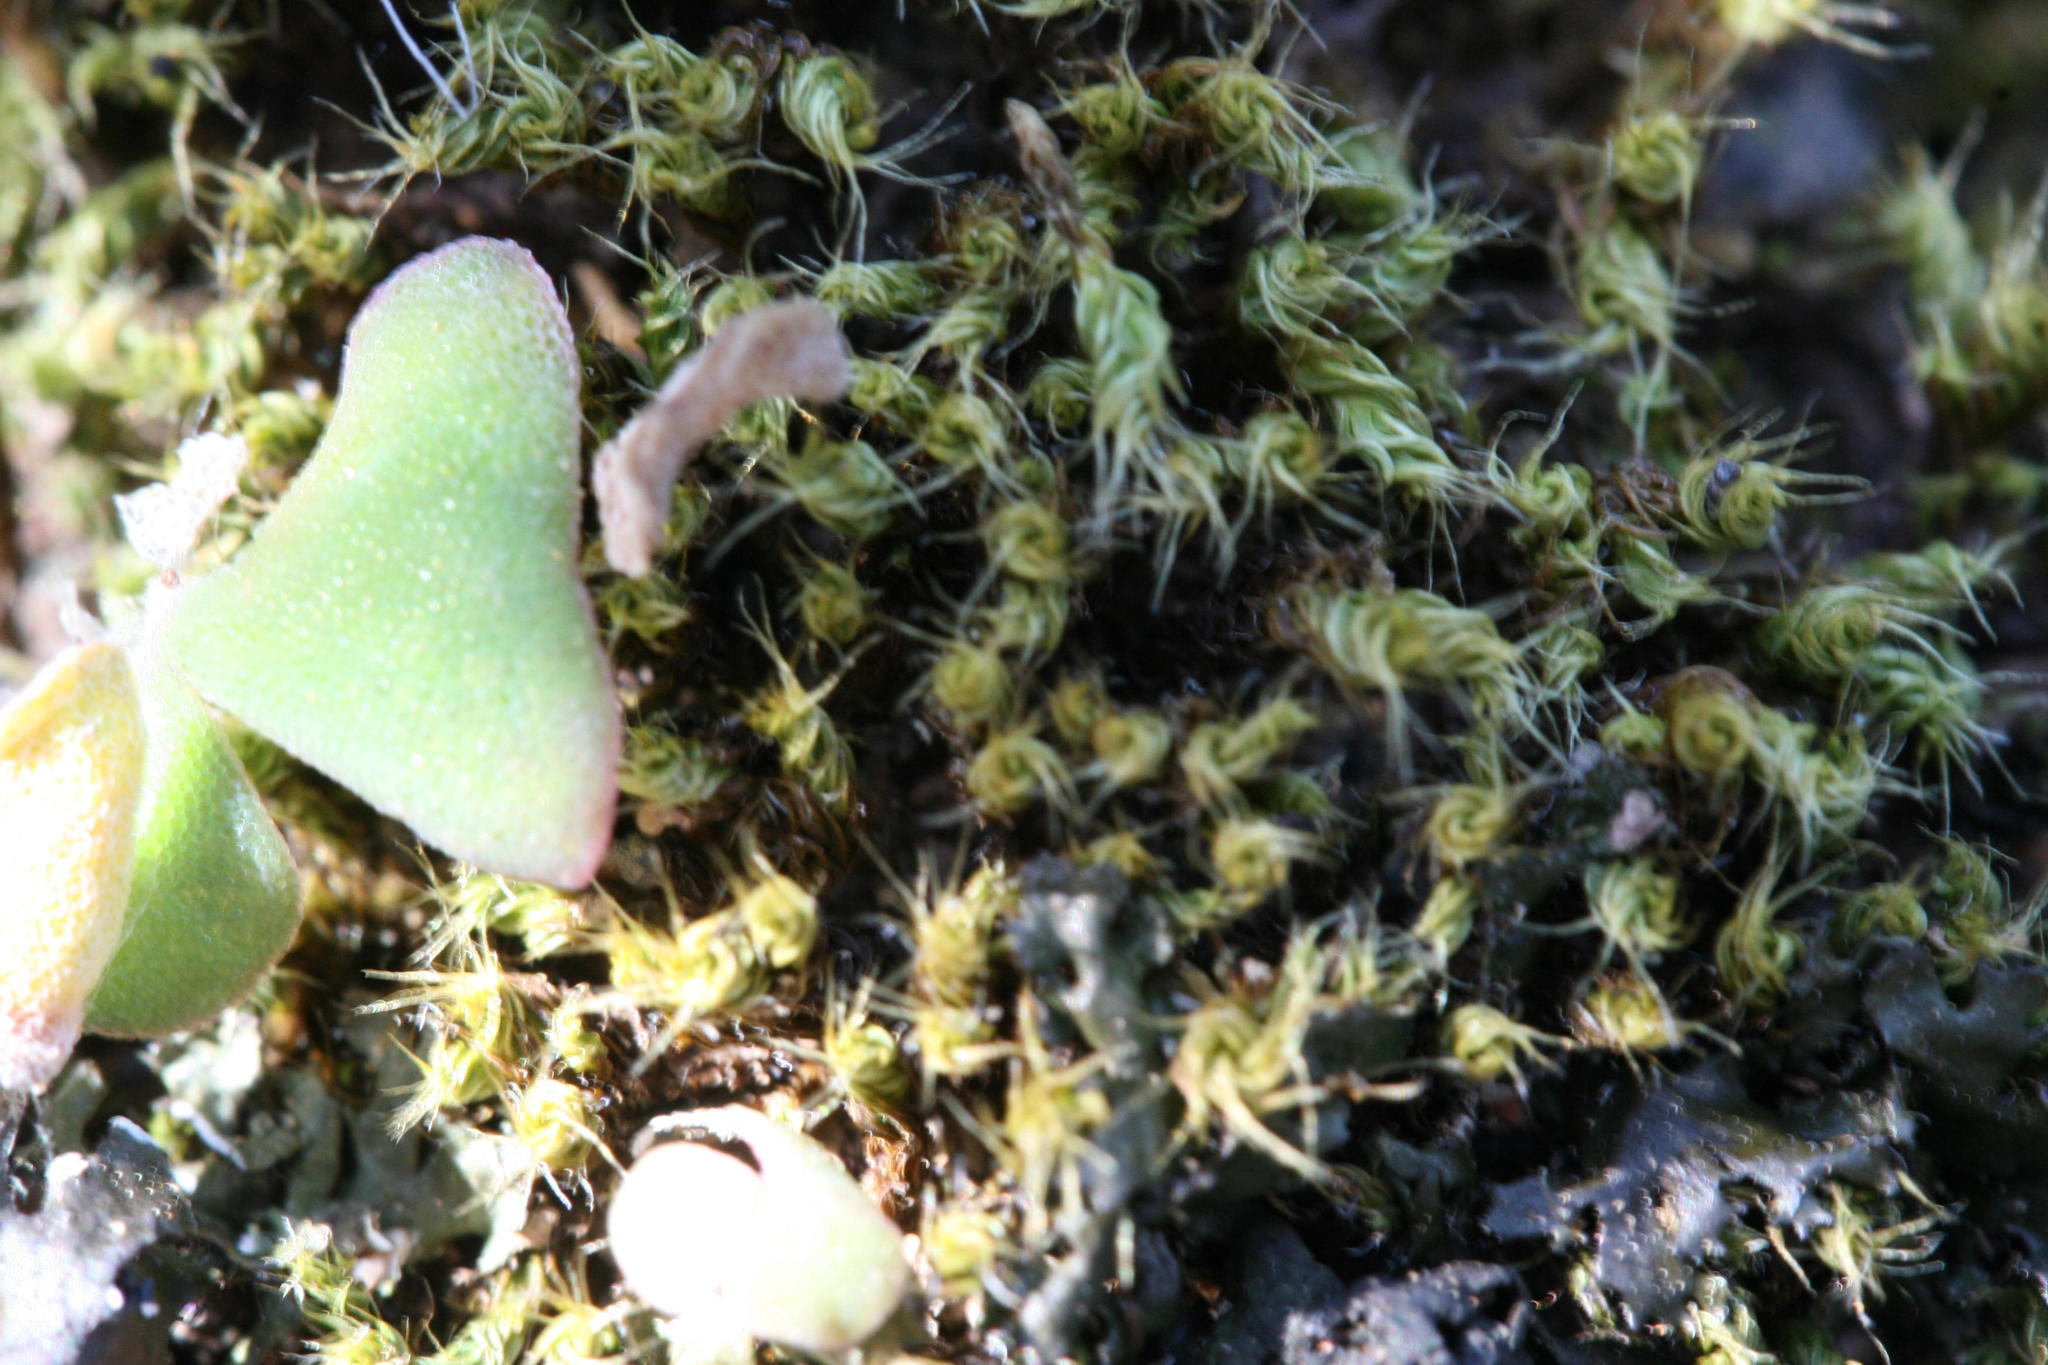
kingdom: Plantae
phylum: Bryophyta
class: Bryopsida
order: Pottiales
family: Pottiaceae
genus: Pseudocrossidium
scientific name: Pseudocrossidium crinitum
